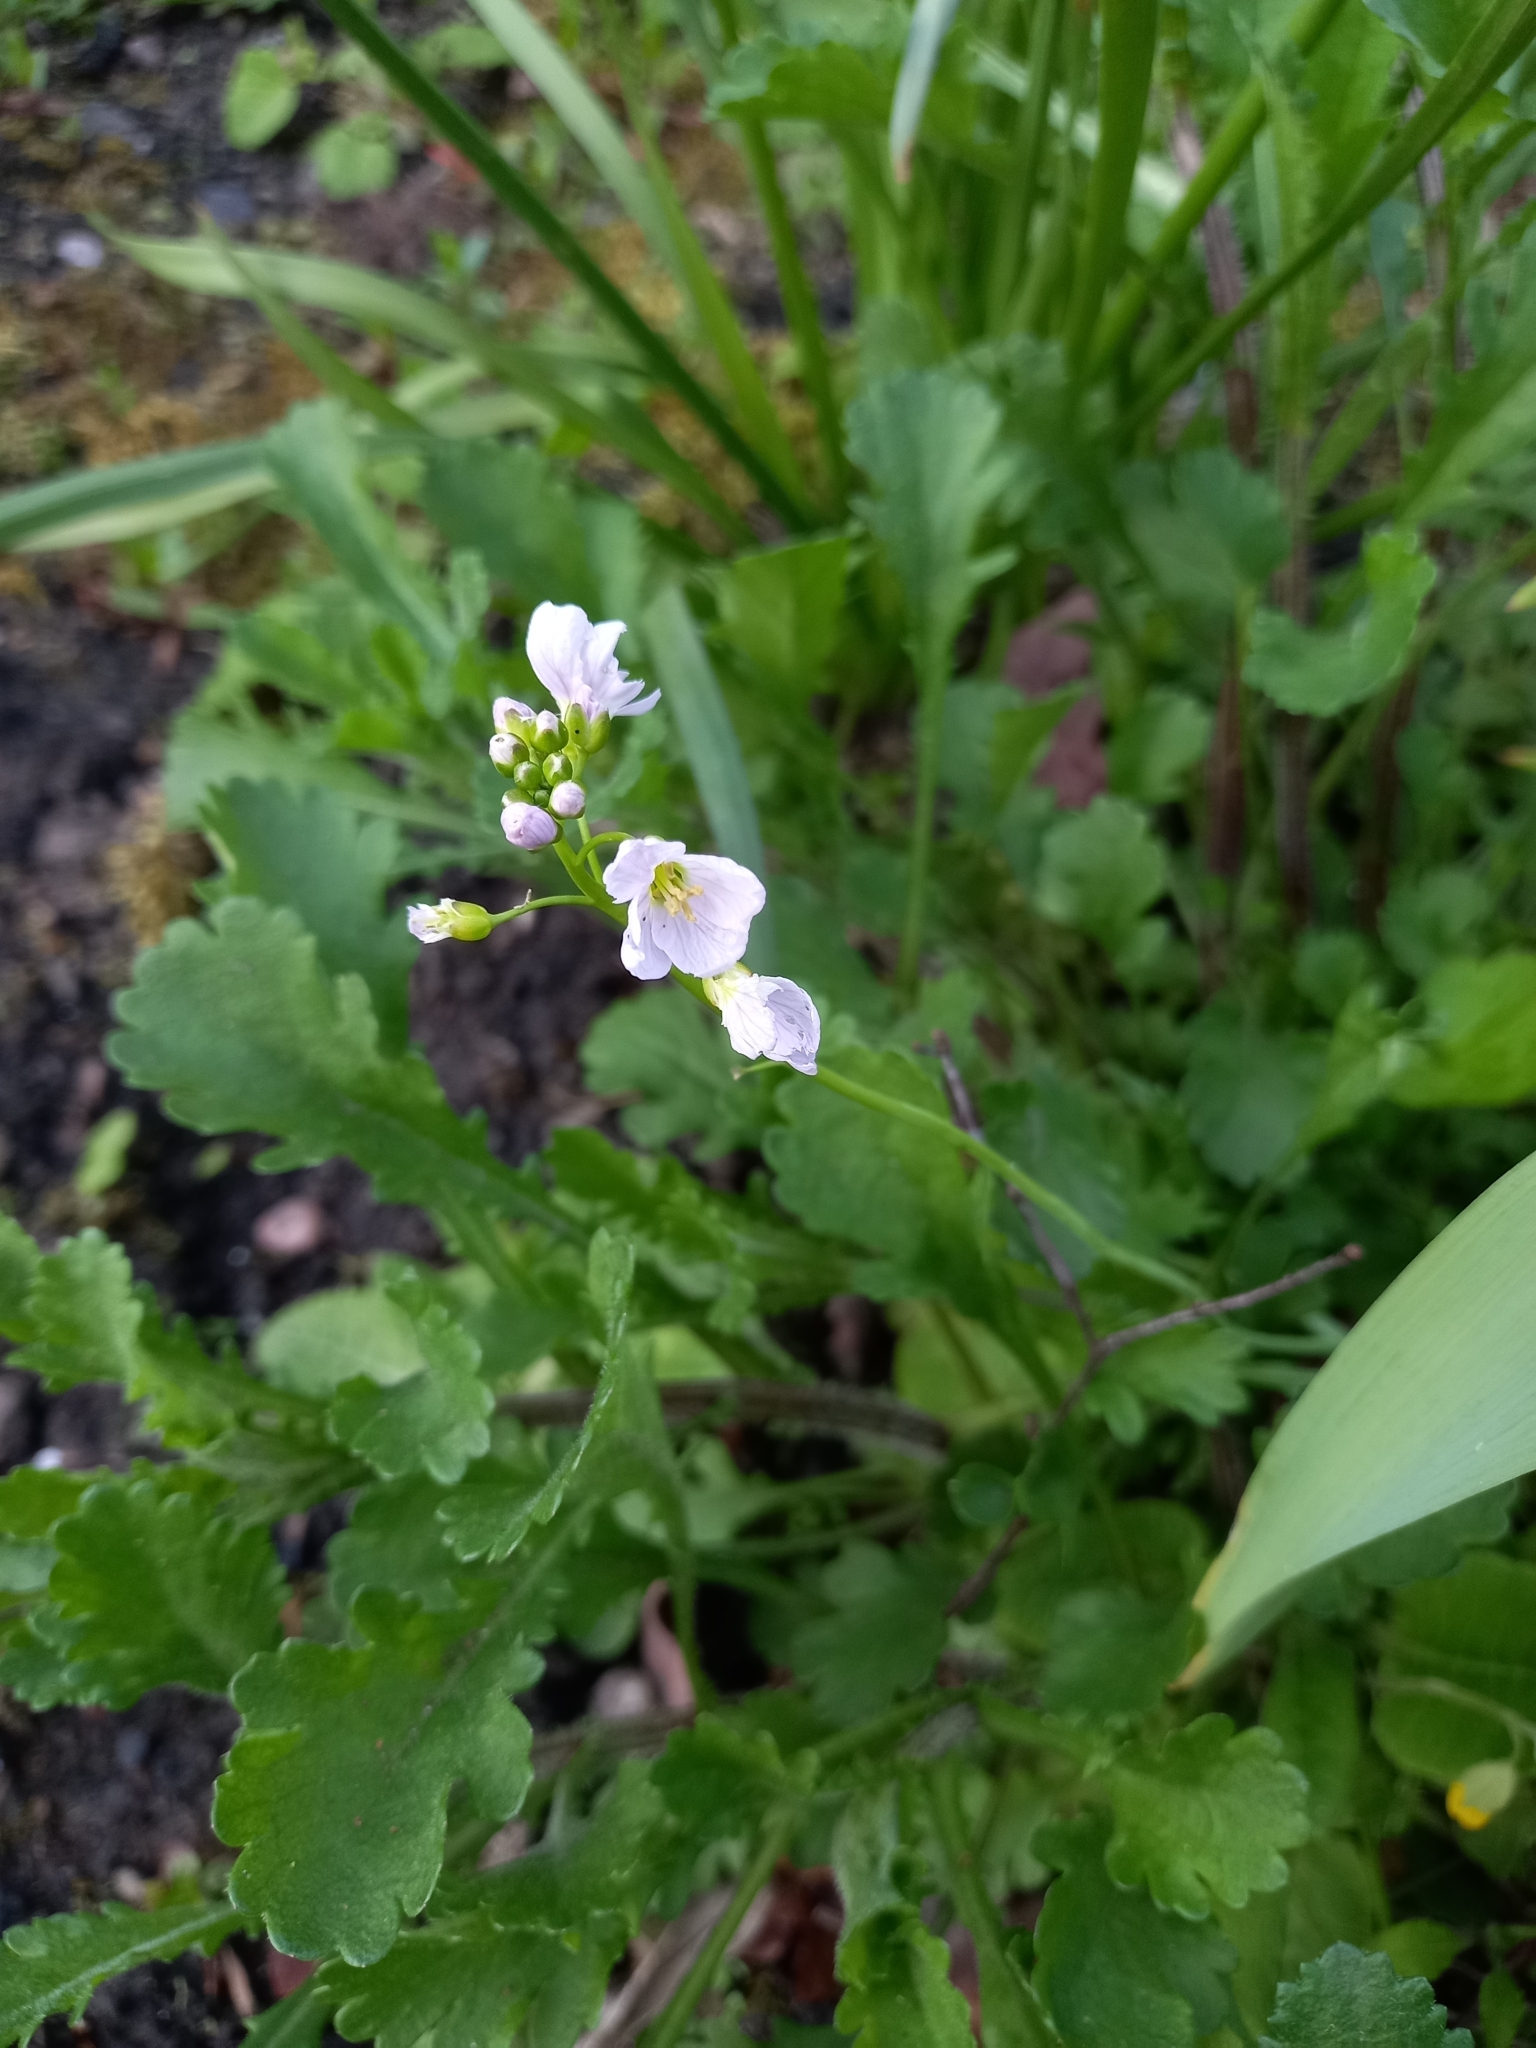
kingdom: Plantae
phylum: Tracheophyta
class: Magnoliopsida
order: Brassicales
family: Brassicaceae
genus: Cardamine
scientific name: Cardamine pratensis
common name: Cuckoo flower
